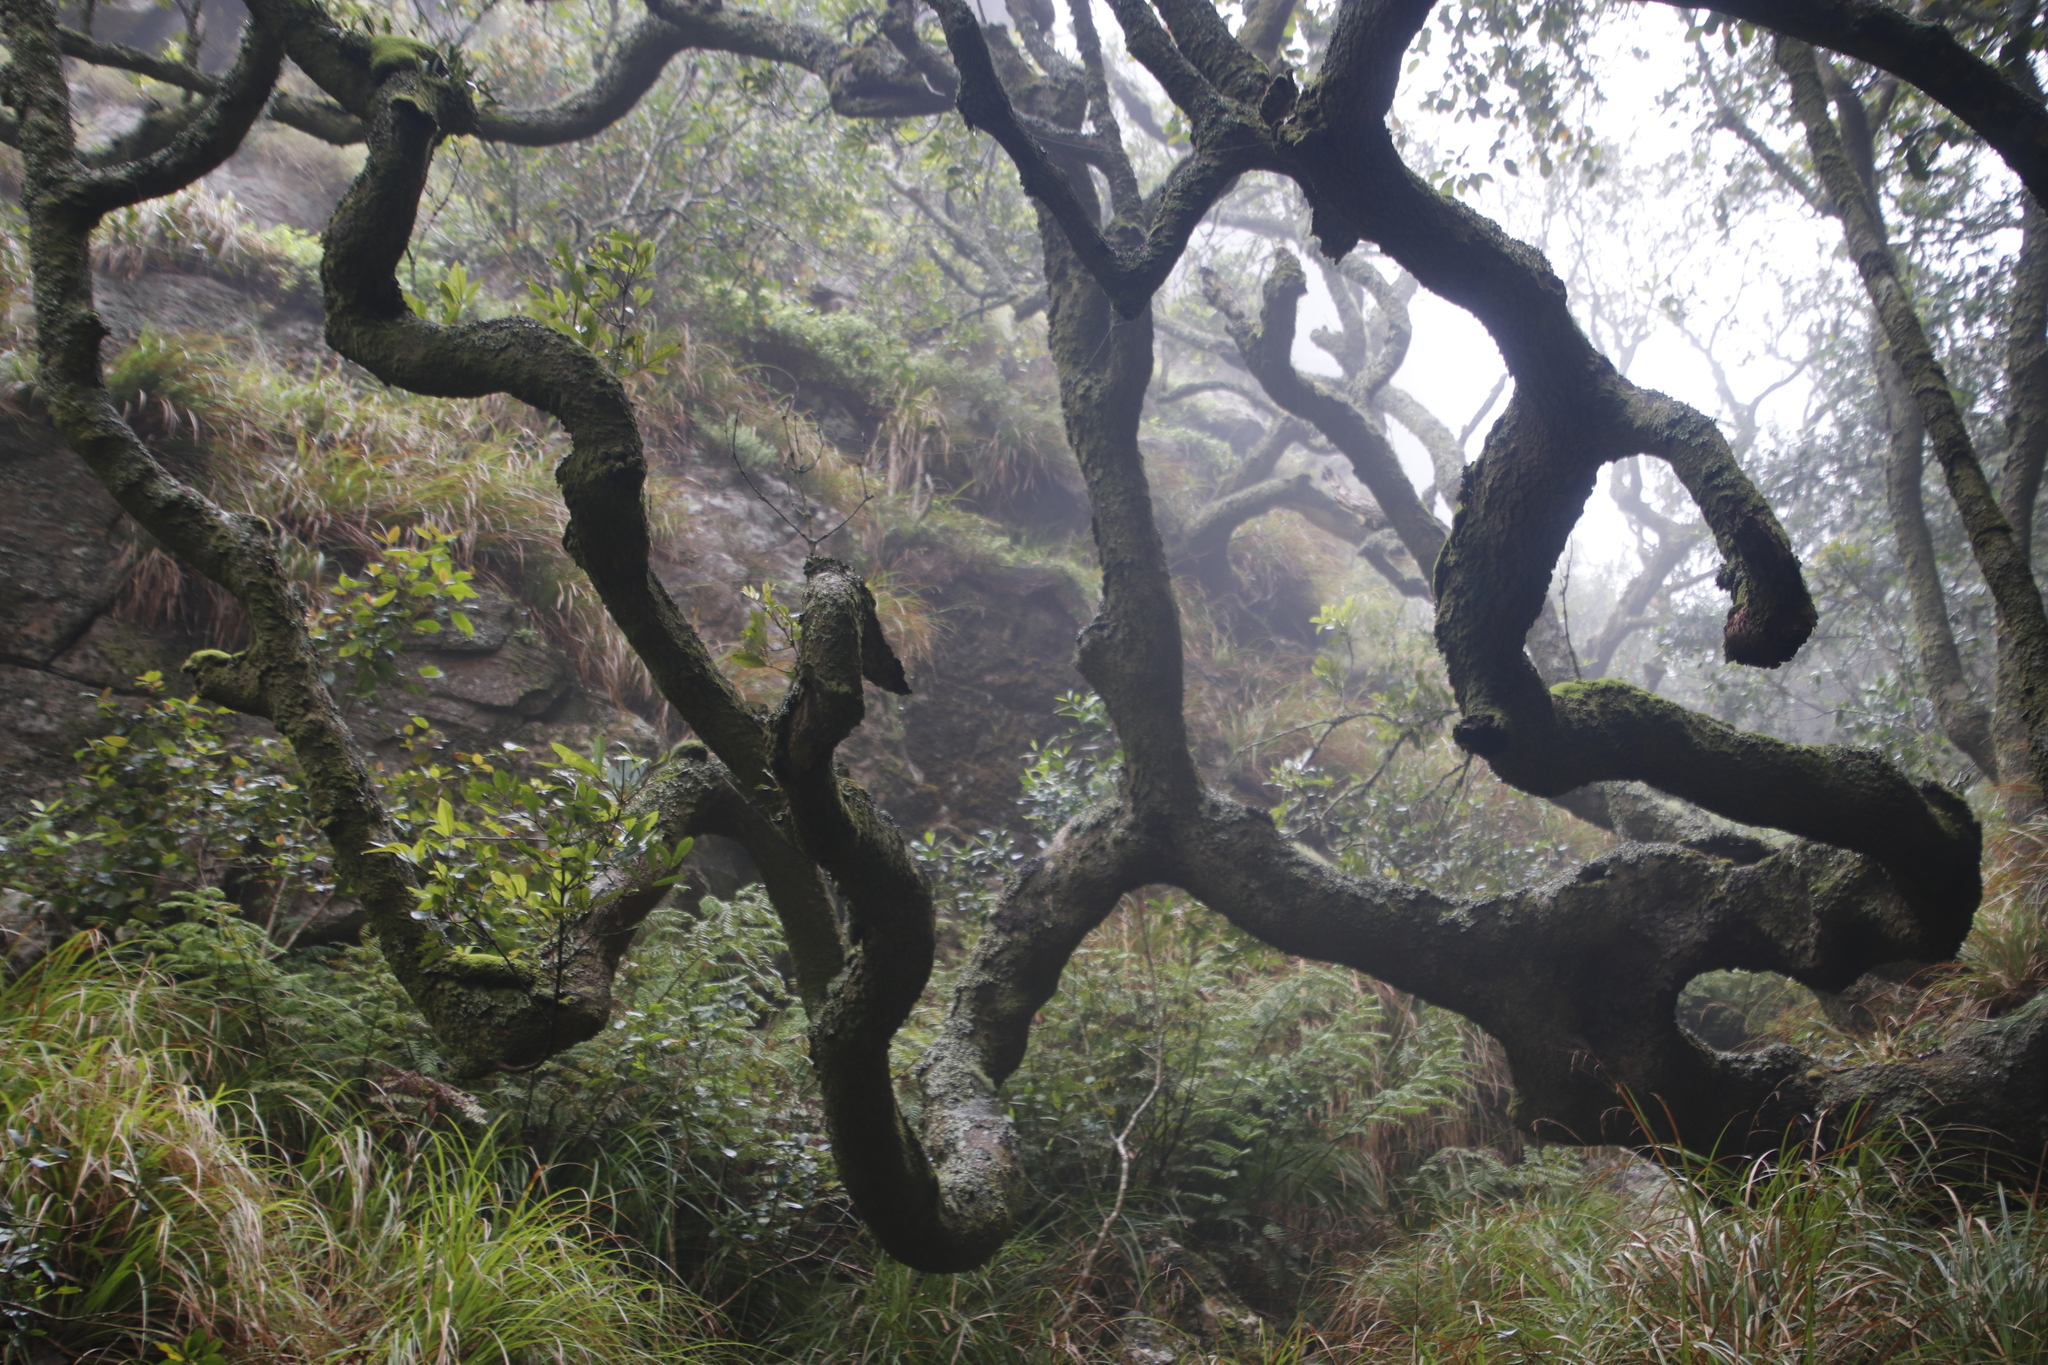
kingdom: Plantae
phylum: Tracheophyta
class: Magnoliopsida
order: Oxalidales
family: Cunoniaceae
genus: Cunonia
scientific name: Cunonia capensis
